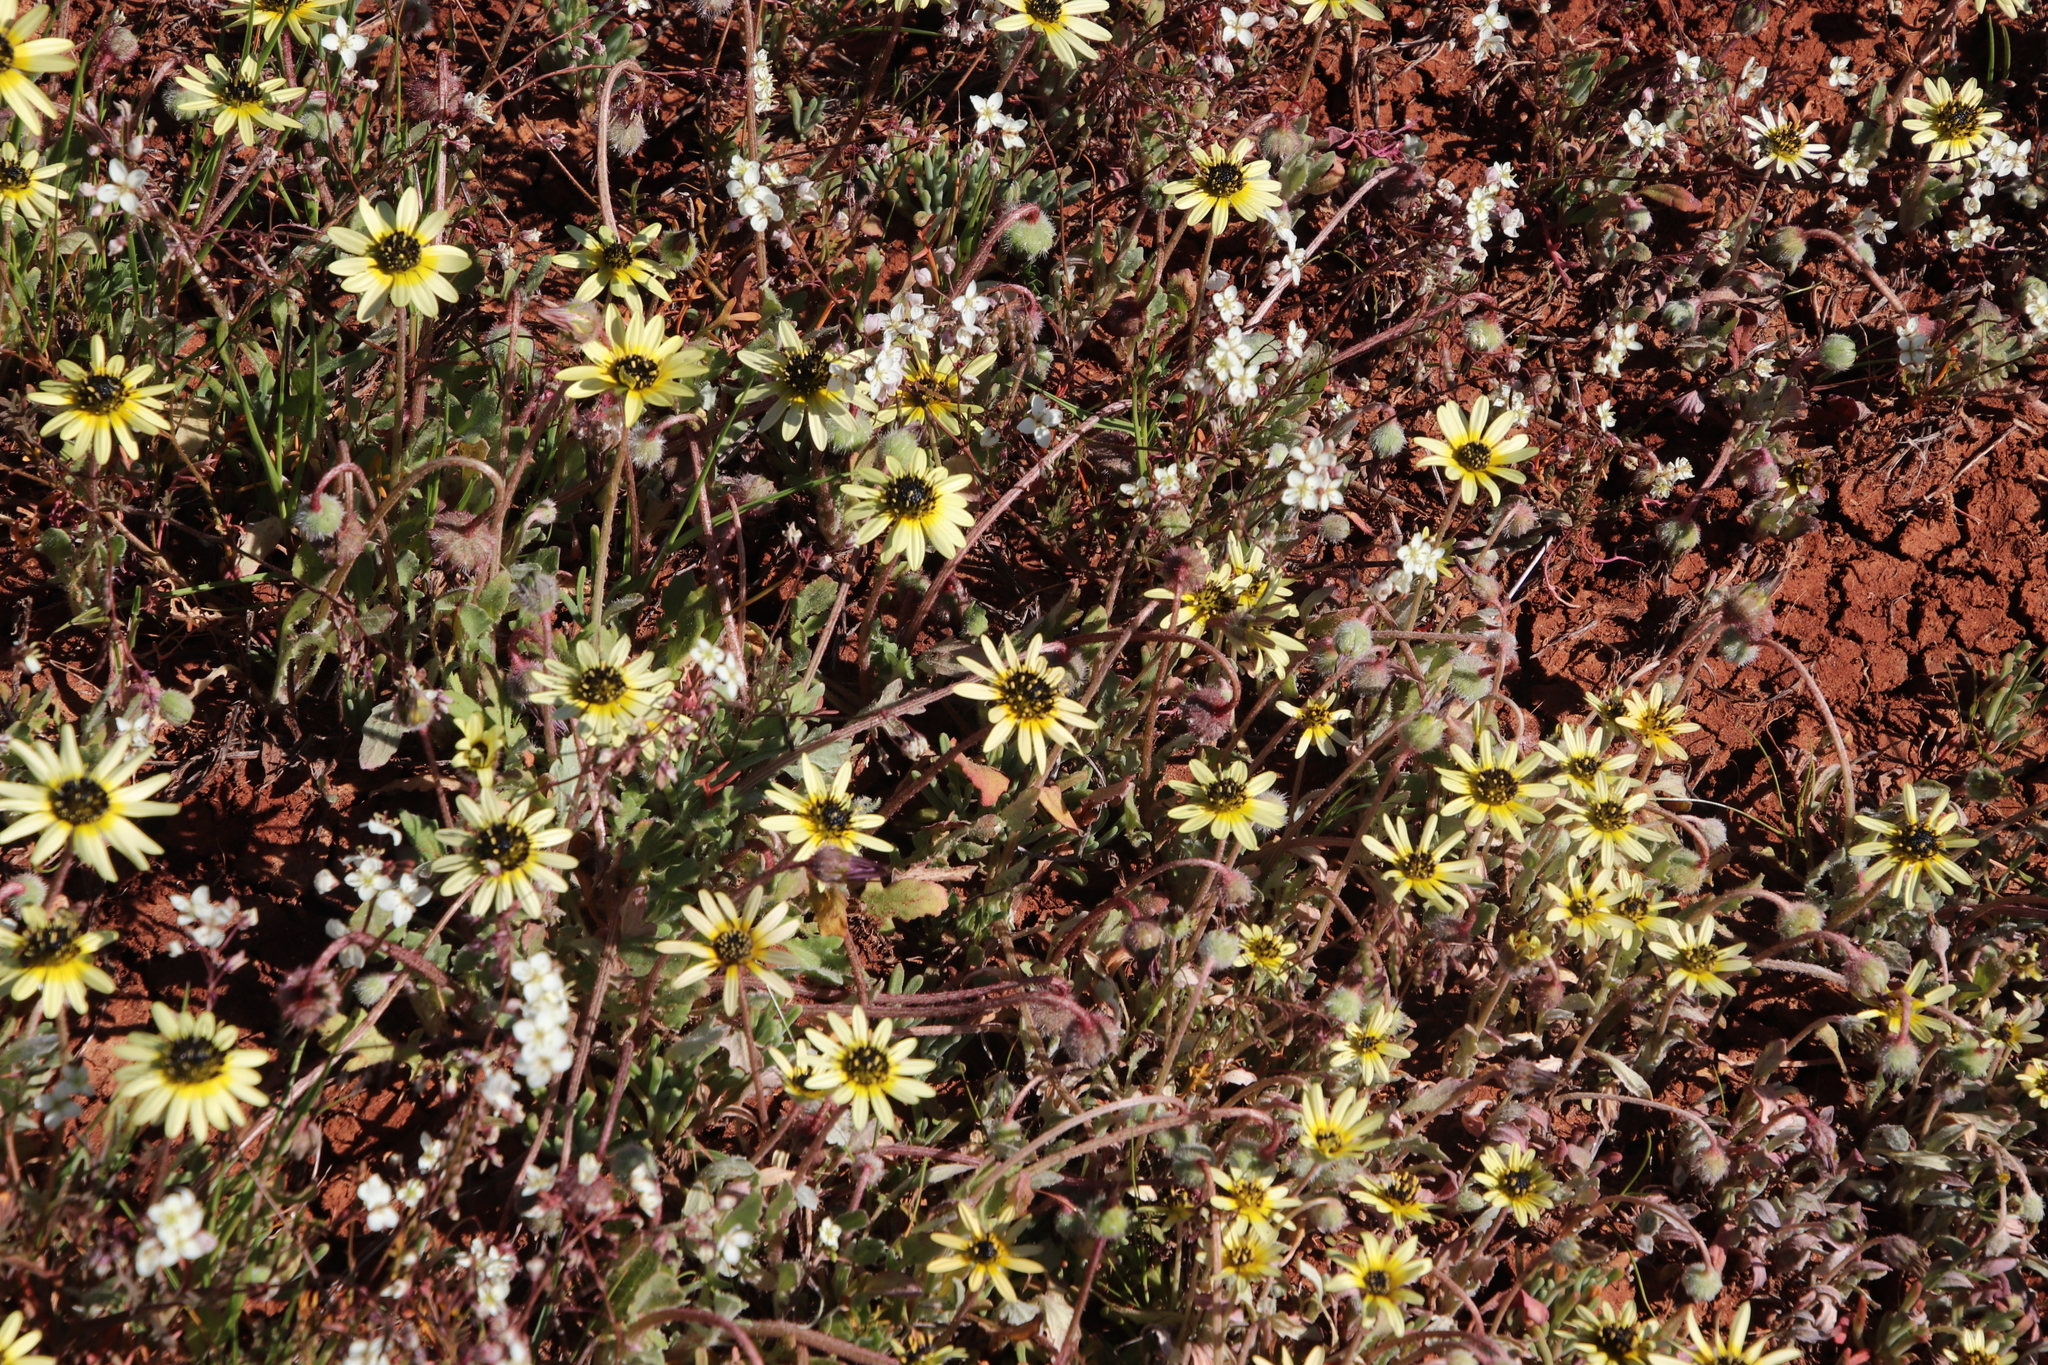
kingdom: Plantae
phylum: Tracheophyta
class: Magnoliopsida
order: Asterales
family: Asteraceae
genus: Arctotis
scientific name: Arctotis sulcocarpa
